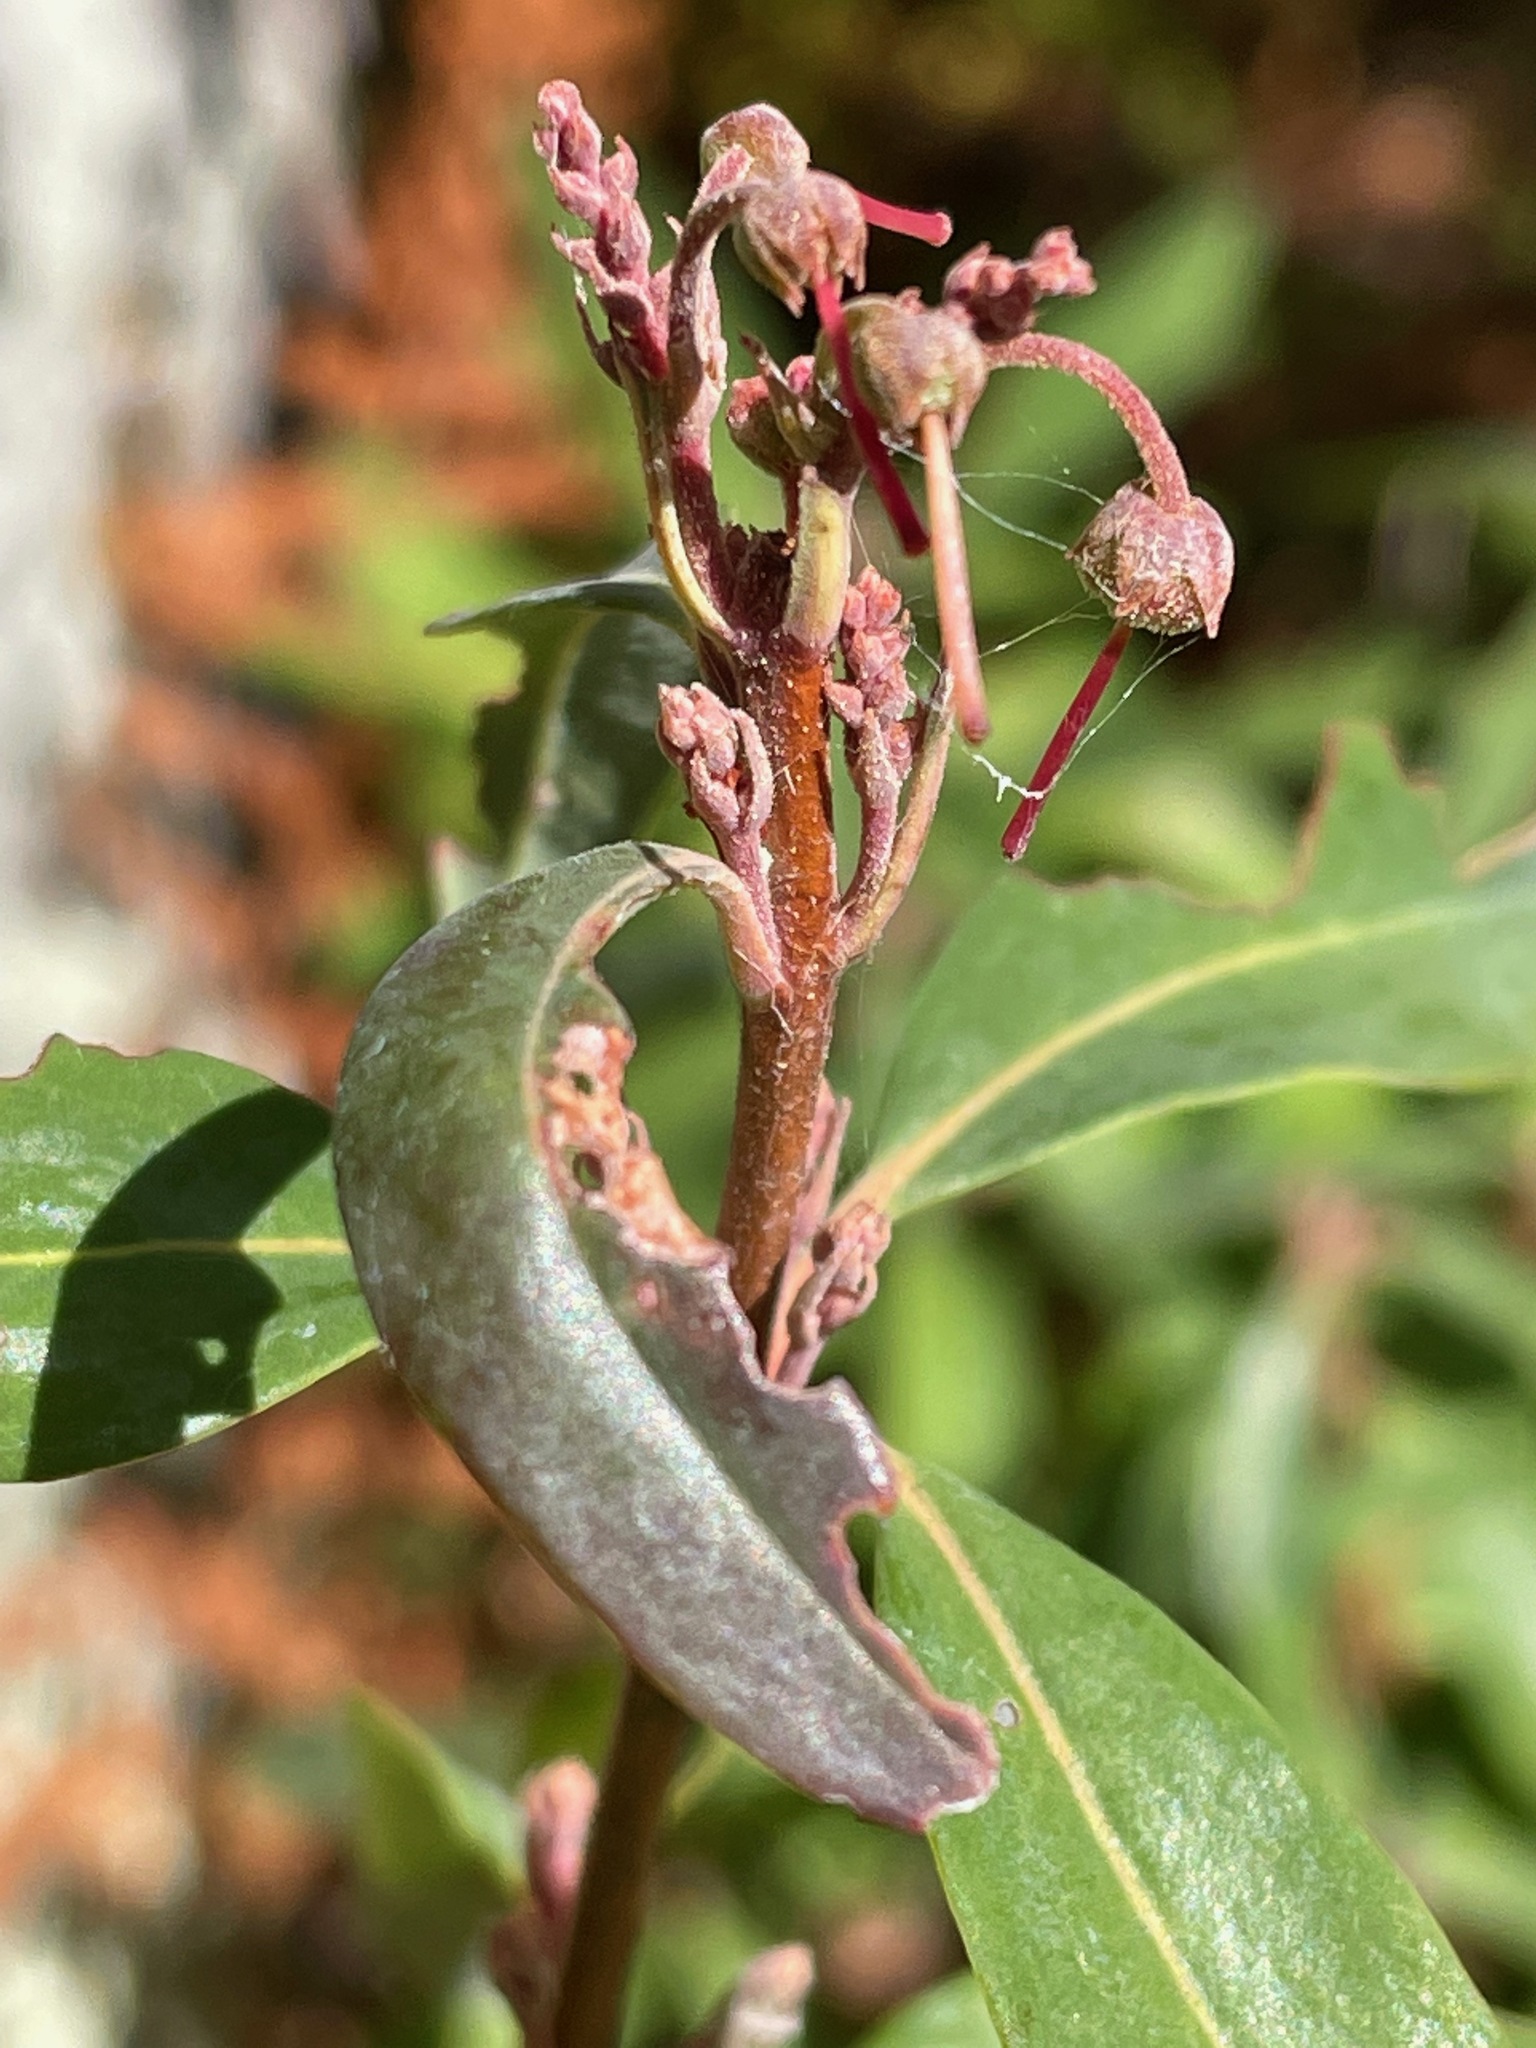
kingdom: Plantae
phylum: Tracheophyta
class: Magnoliopsida
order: Ericales
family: Ericaceae
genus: Kalmia
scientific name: Kalmia angustifolia
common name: Sheep-laurel
